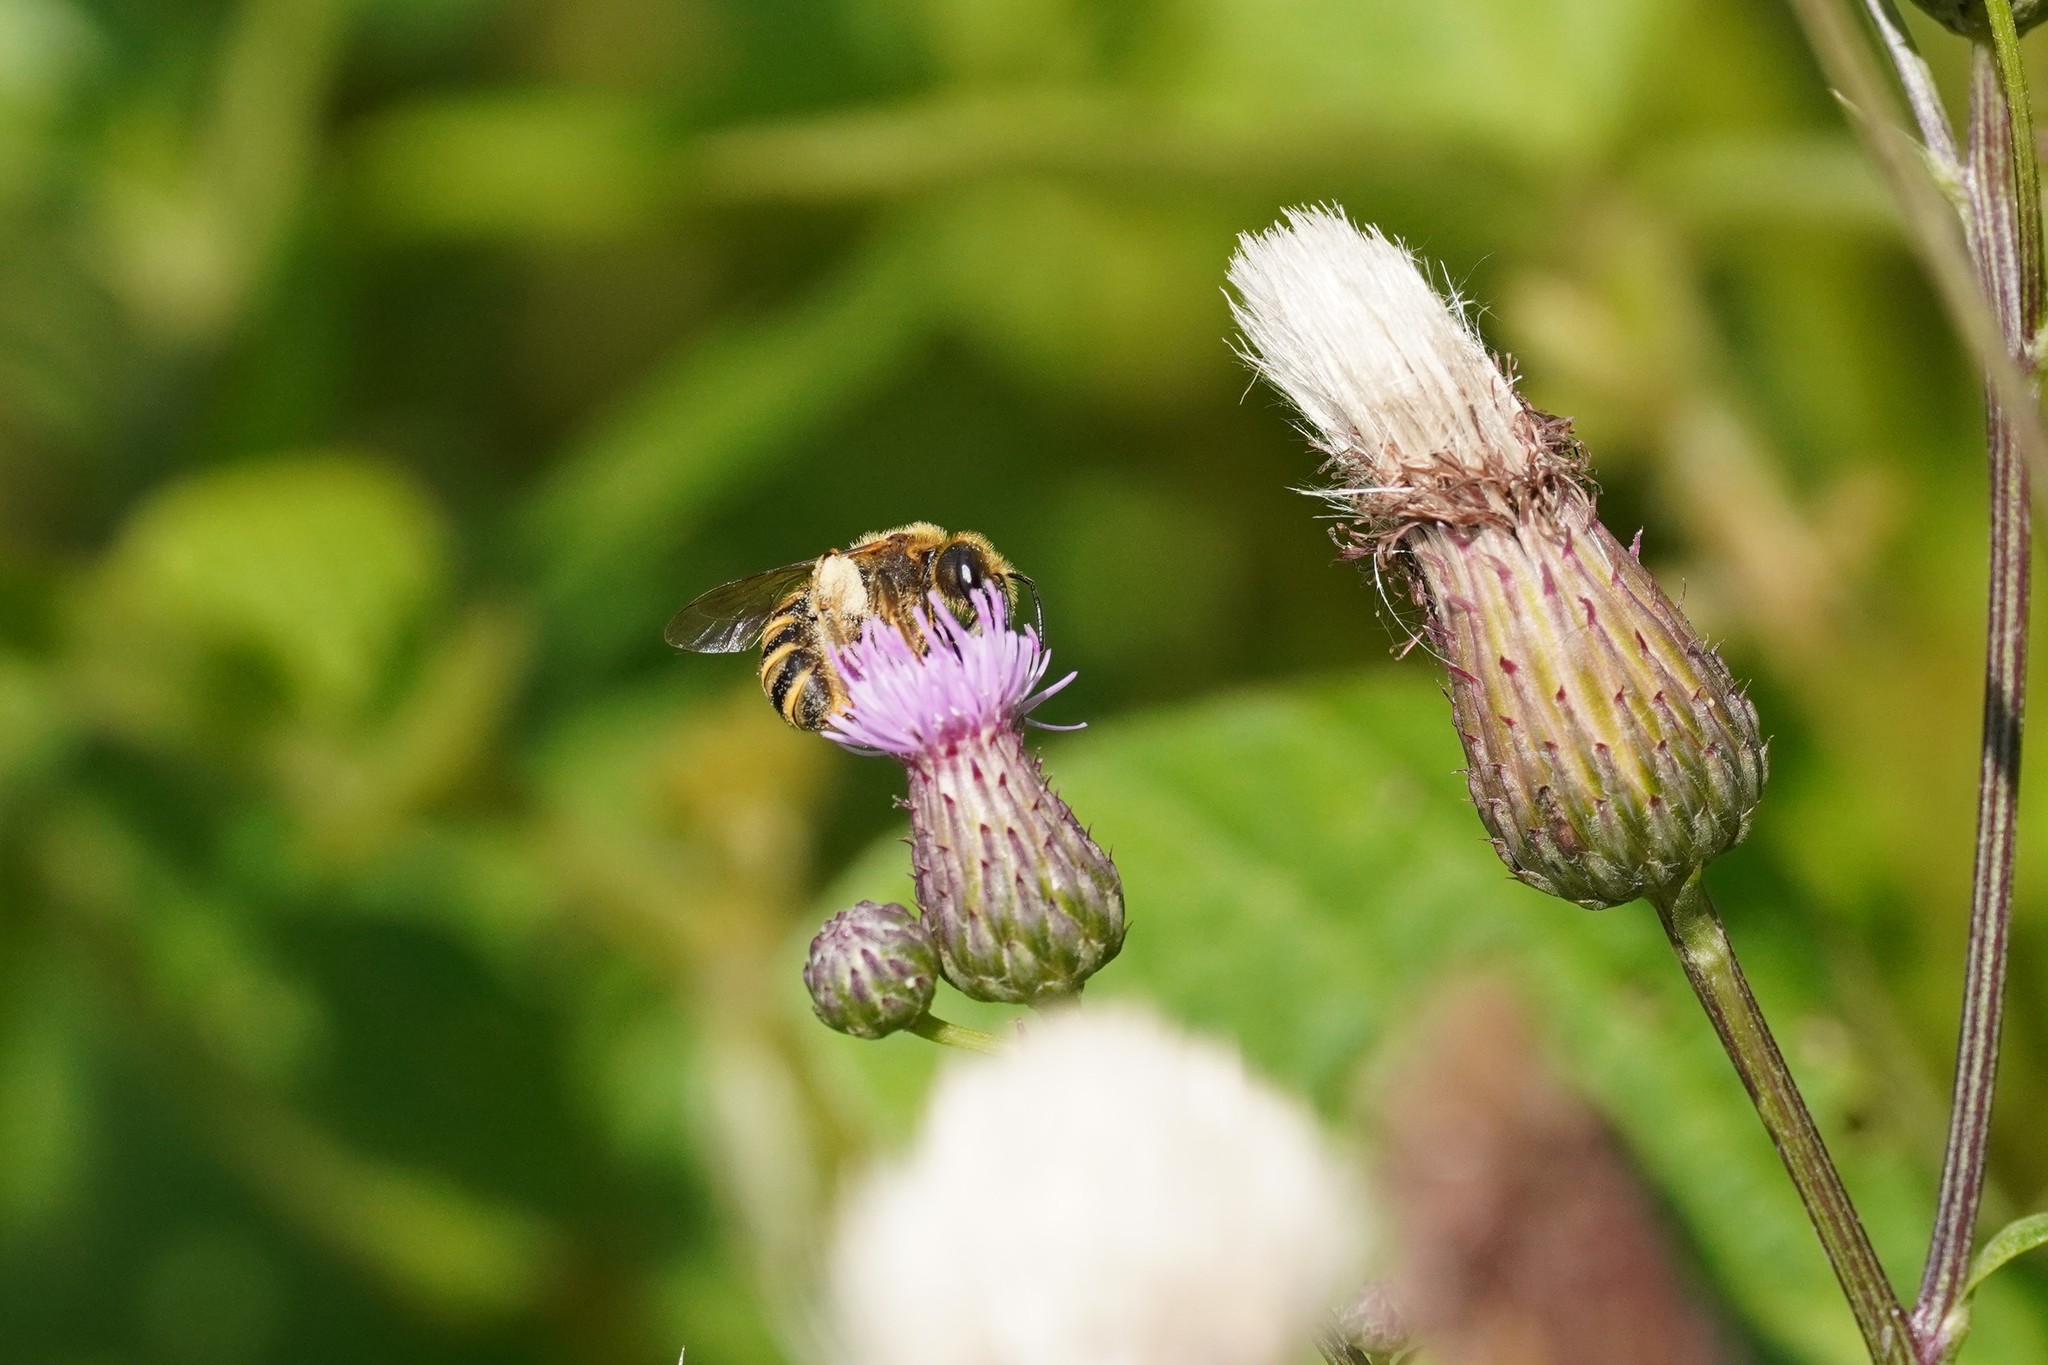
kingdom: Animalia
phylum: Arthropoda
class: Insecta
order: Hymenoptera
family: Halictidae
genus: Halictus
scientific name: Halictus scabiosae
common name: Great banded furrow bee
